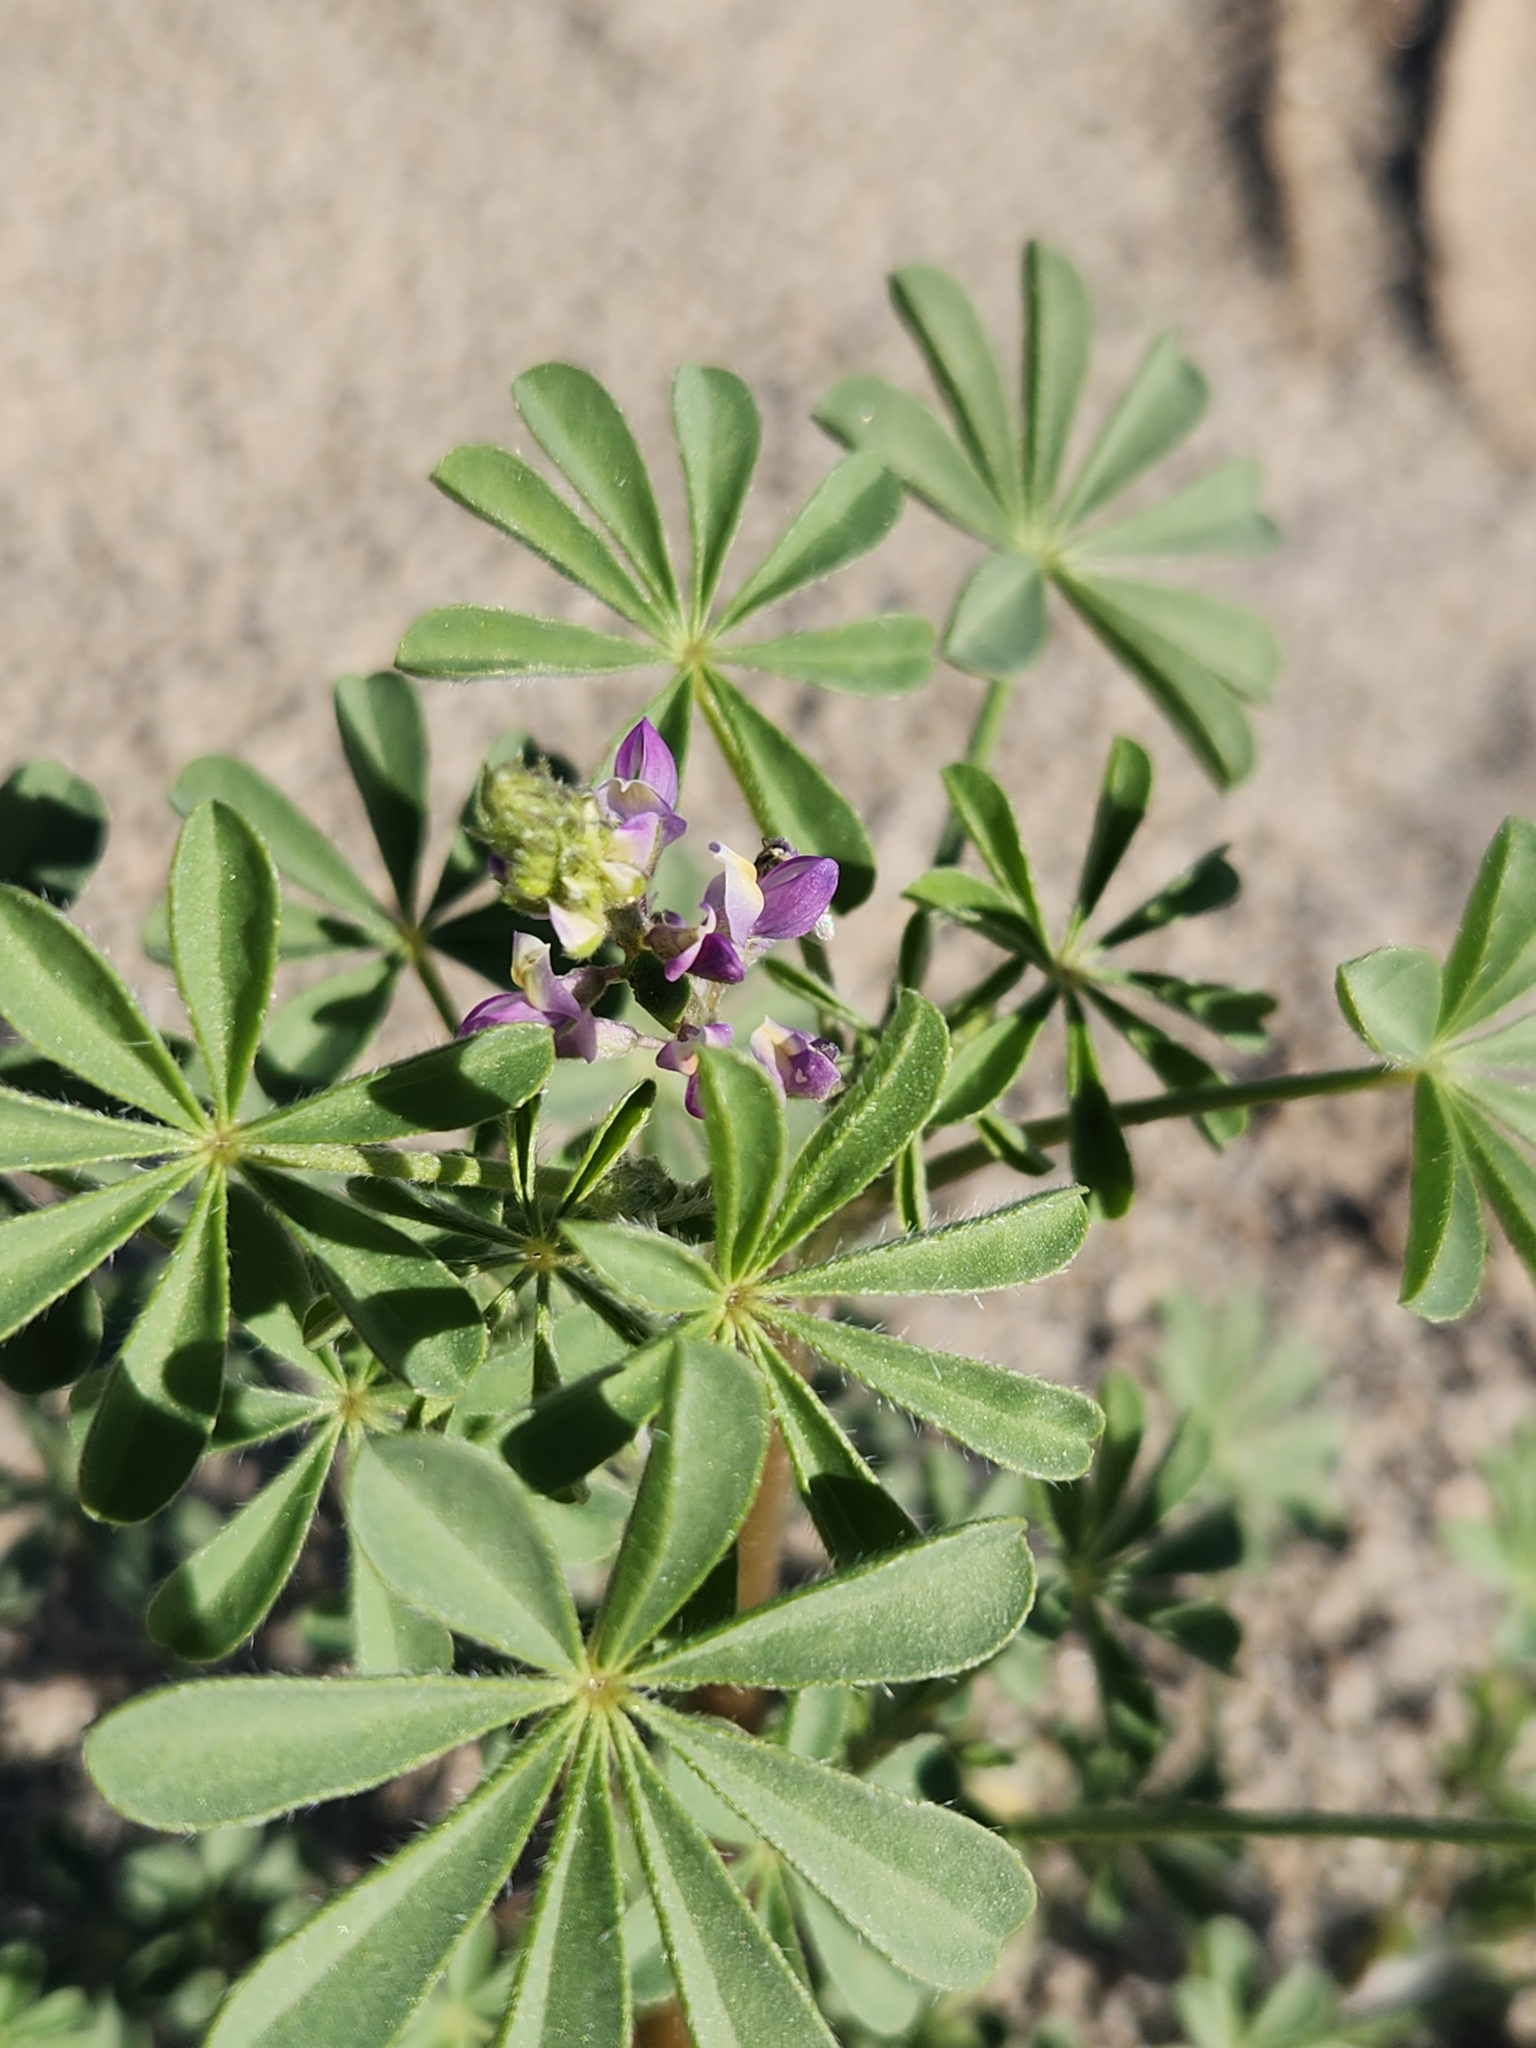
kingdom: Plantae
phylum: Tracheophyta
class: Magnoliopsida
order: Fabales
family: Fabaceae
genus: Lupinus
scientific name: Lupinus arizonicus
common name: Arizona lupine
